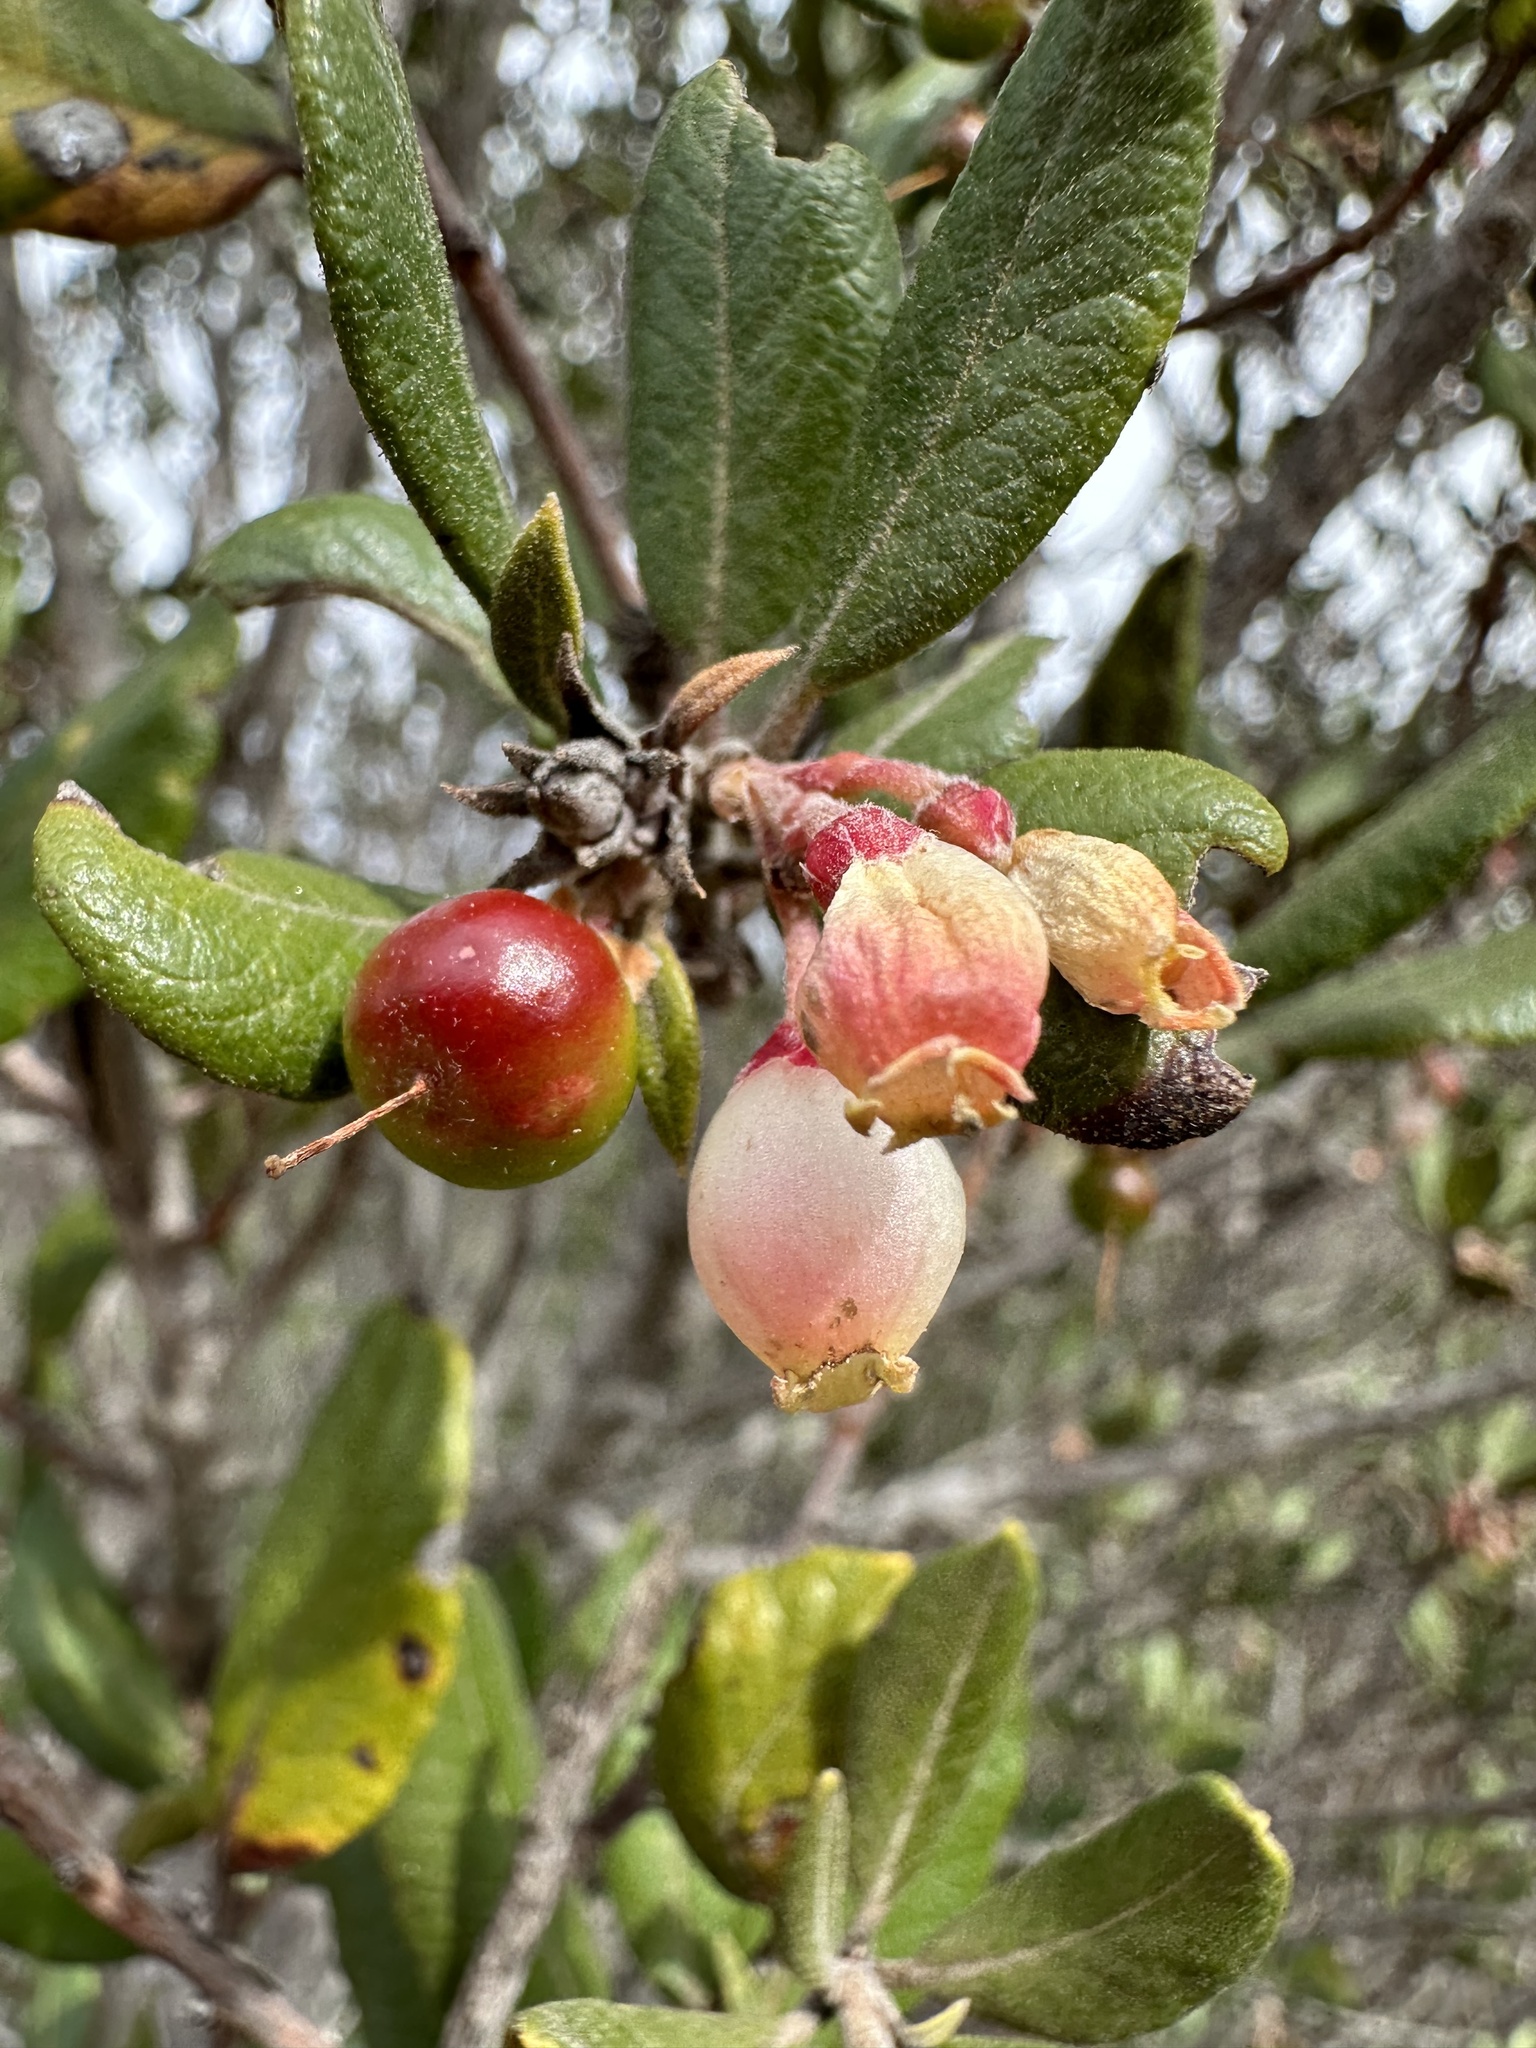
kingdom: Plantae
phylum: Tracheophyta
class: Magnoliopsida
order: Ericales
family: Ericaceae
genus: Arctostaphylos
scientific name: Arctostaphylos bicolor
